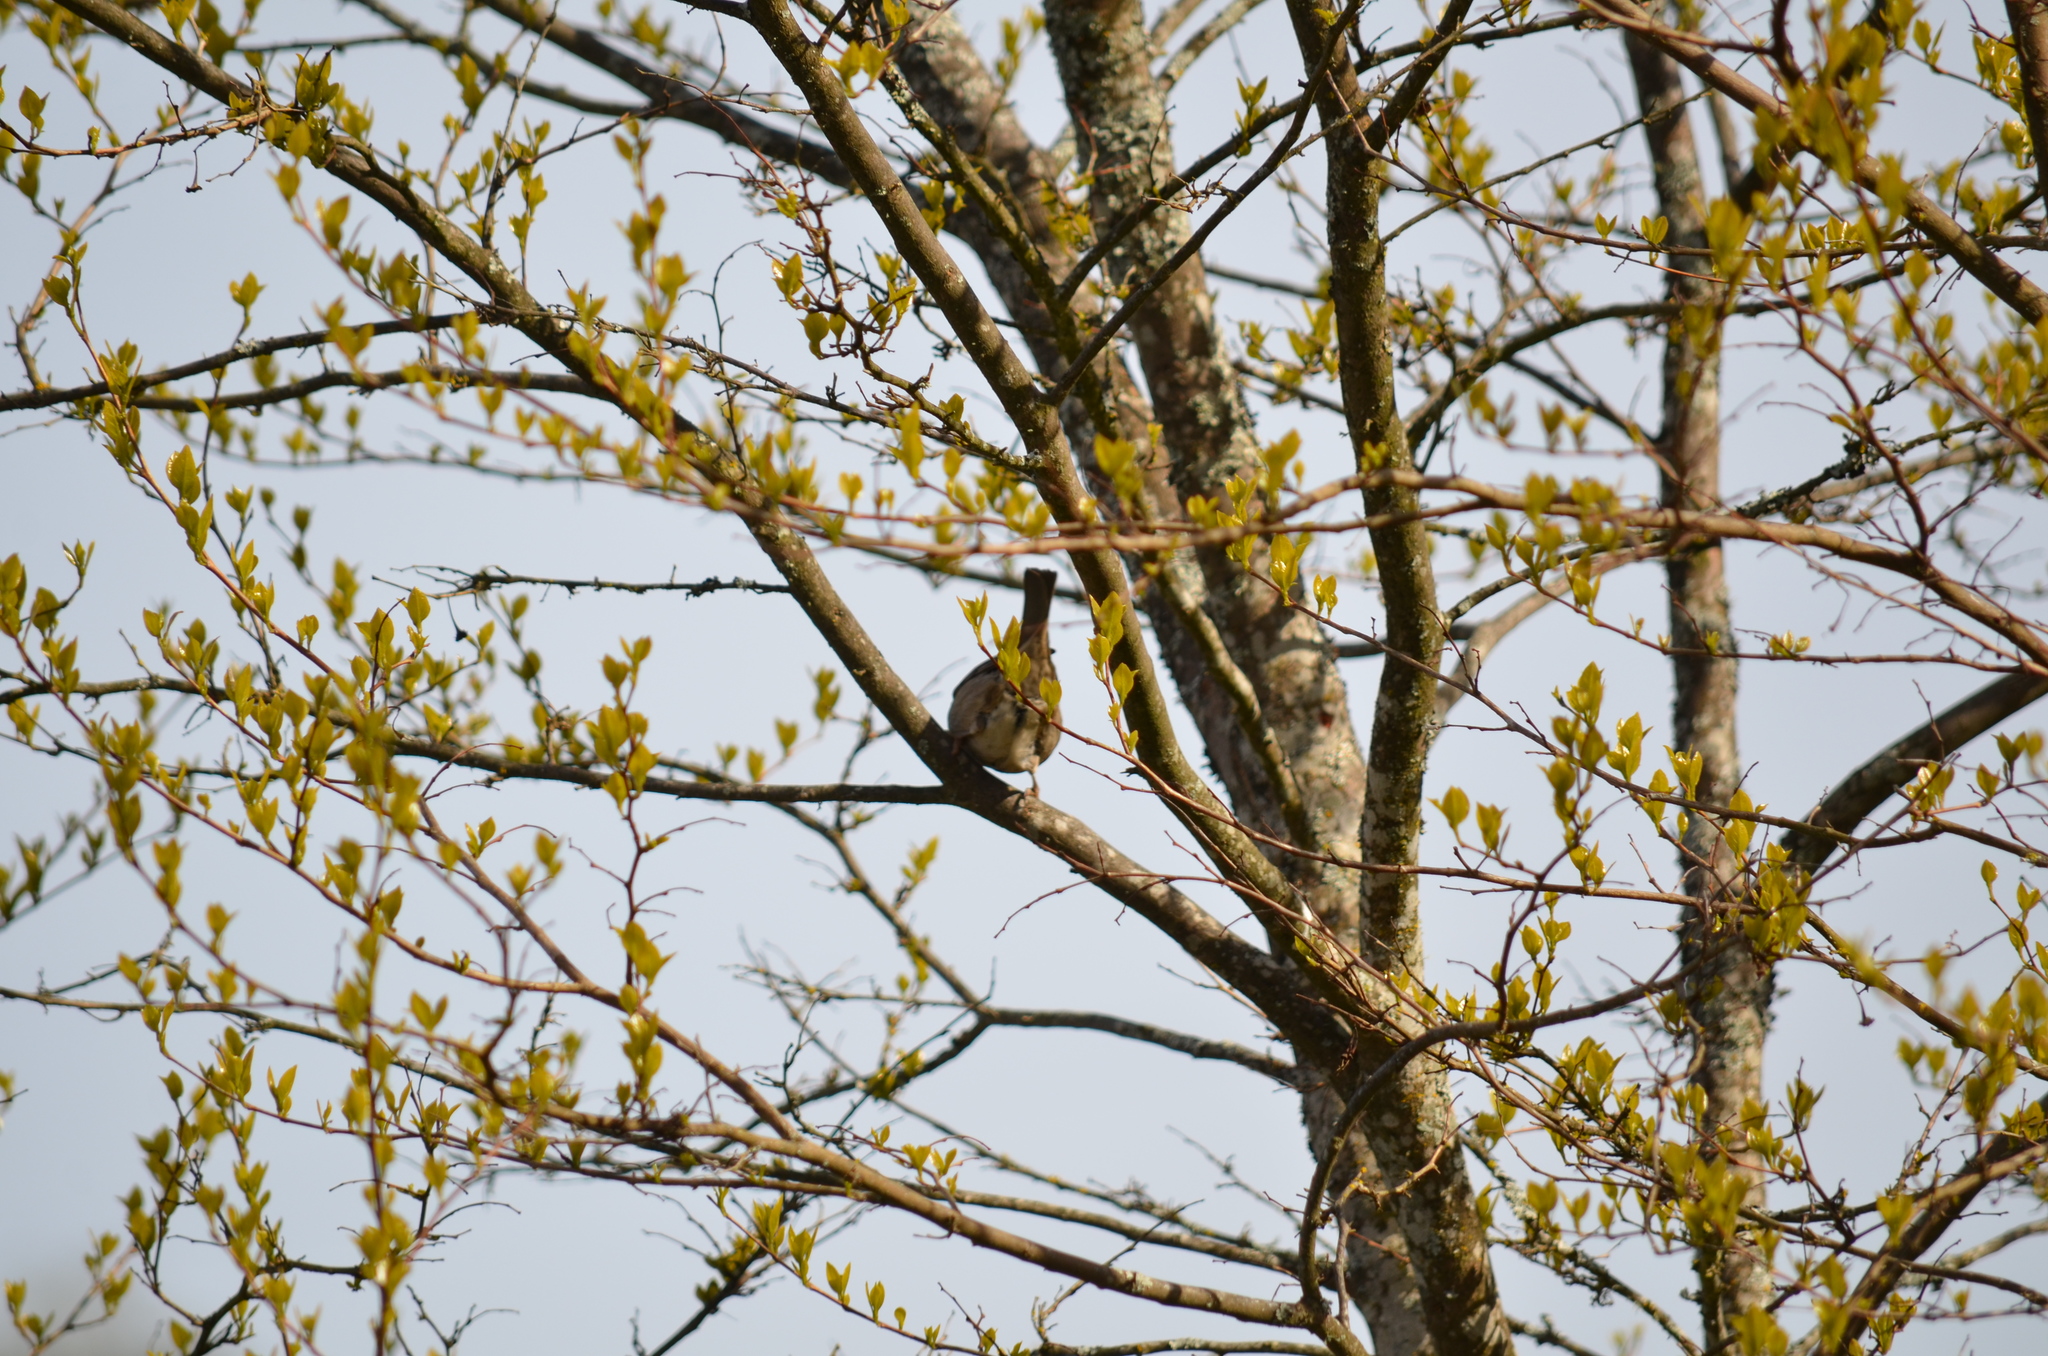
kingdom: Animalia
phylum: Chordata
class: Aves
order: Passeriformes
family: Passeridae
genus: Passer
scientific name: Passer domesticus
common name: House sparrow
